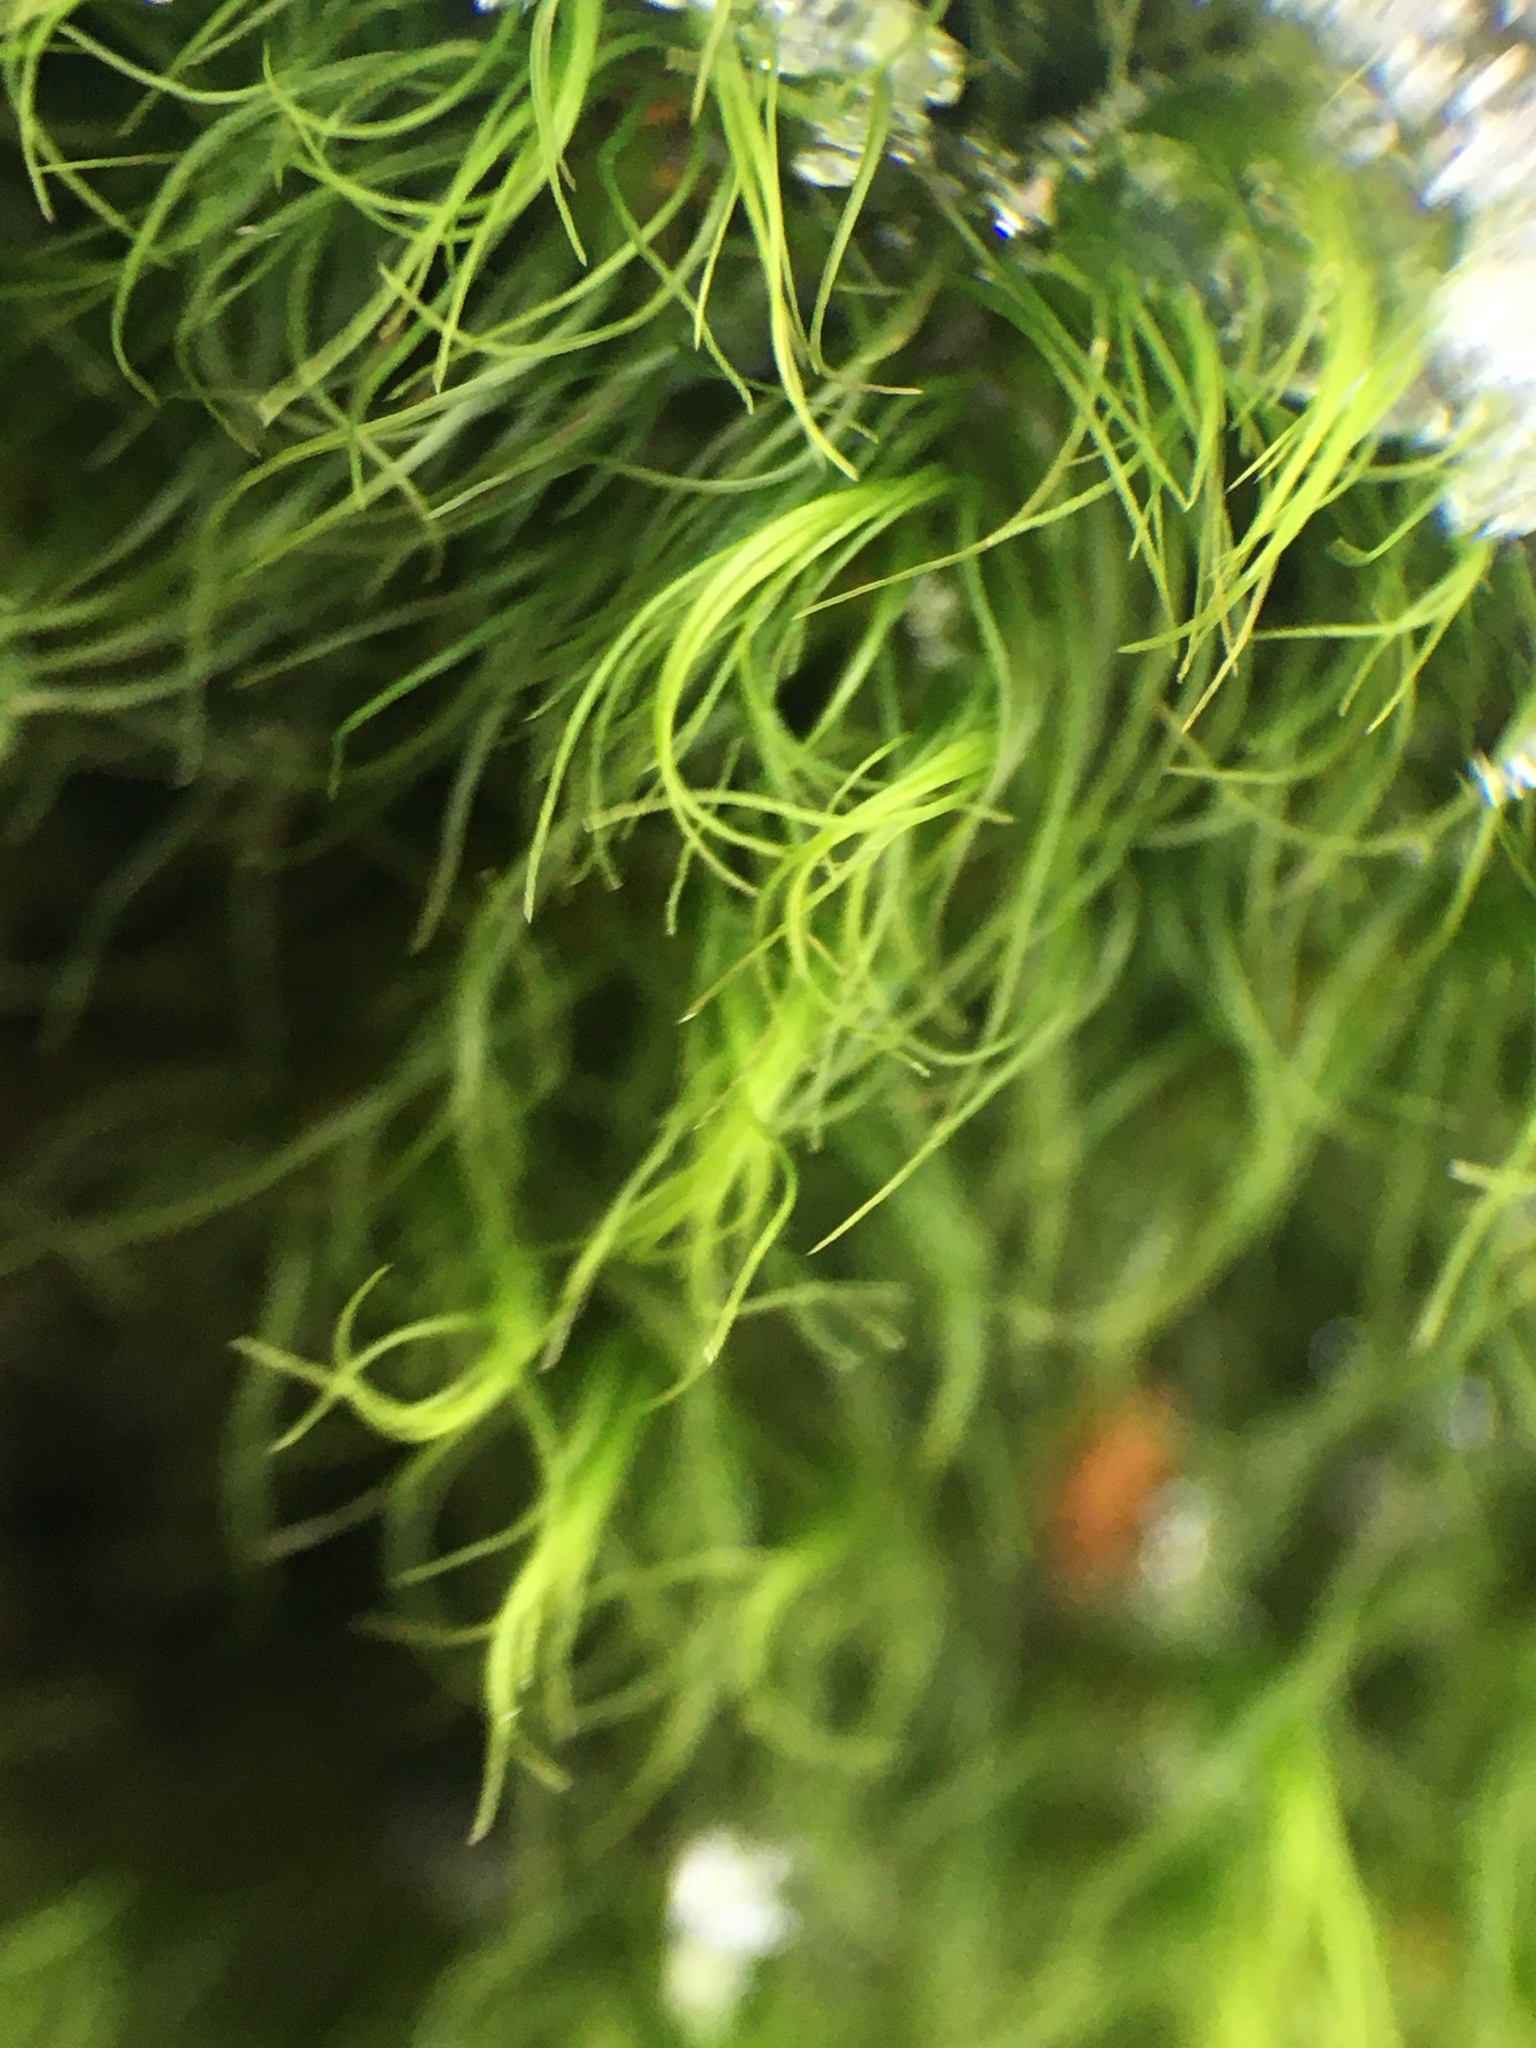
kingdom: Plantae
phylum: Bryophyta
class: Bryopsida
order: Dicranales
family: Dicranaceae
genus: Dicranum
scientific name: Dicranum scoparium
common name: Broom fork-moss
